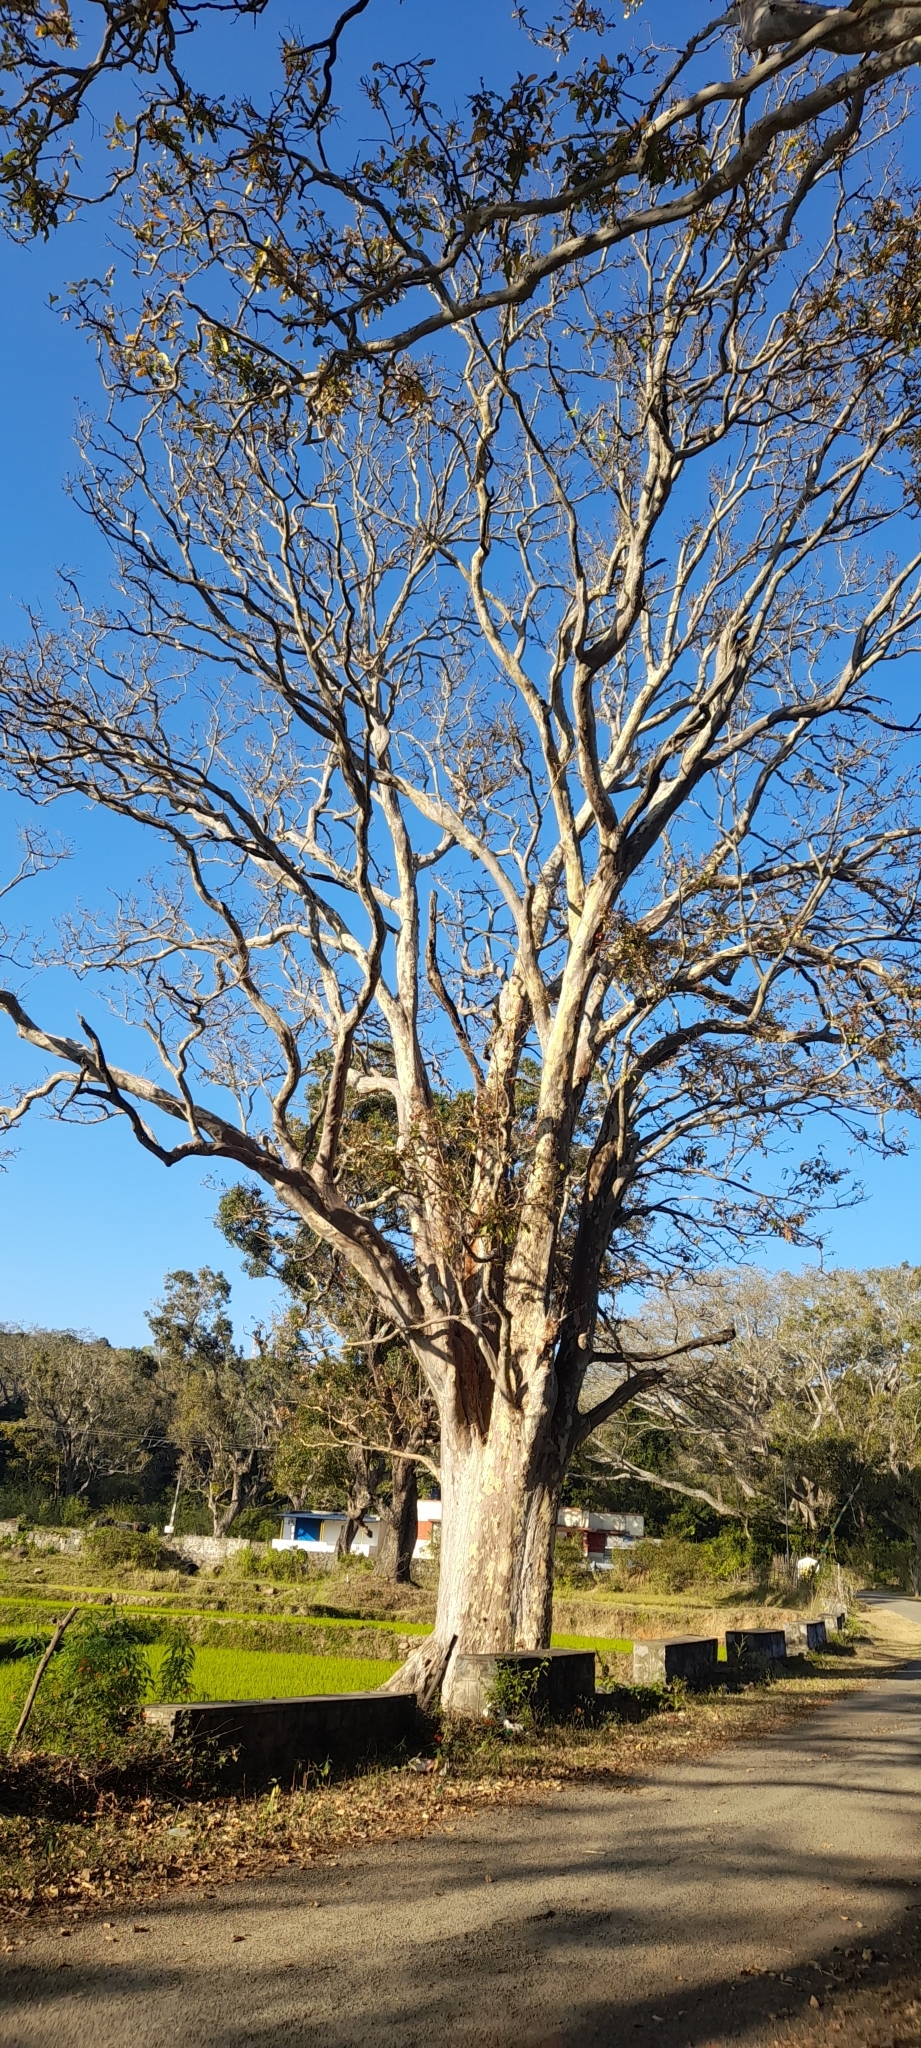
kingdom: Plantae
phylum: Tracheophyta
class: Magnoliopsida
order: Myrtales
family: Combretaceae
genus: Terminalia
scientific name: Terminalia arjuna
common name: Arjun
